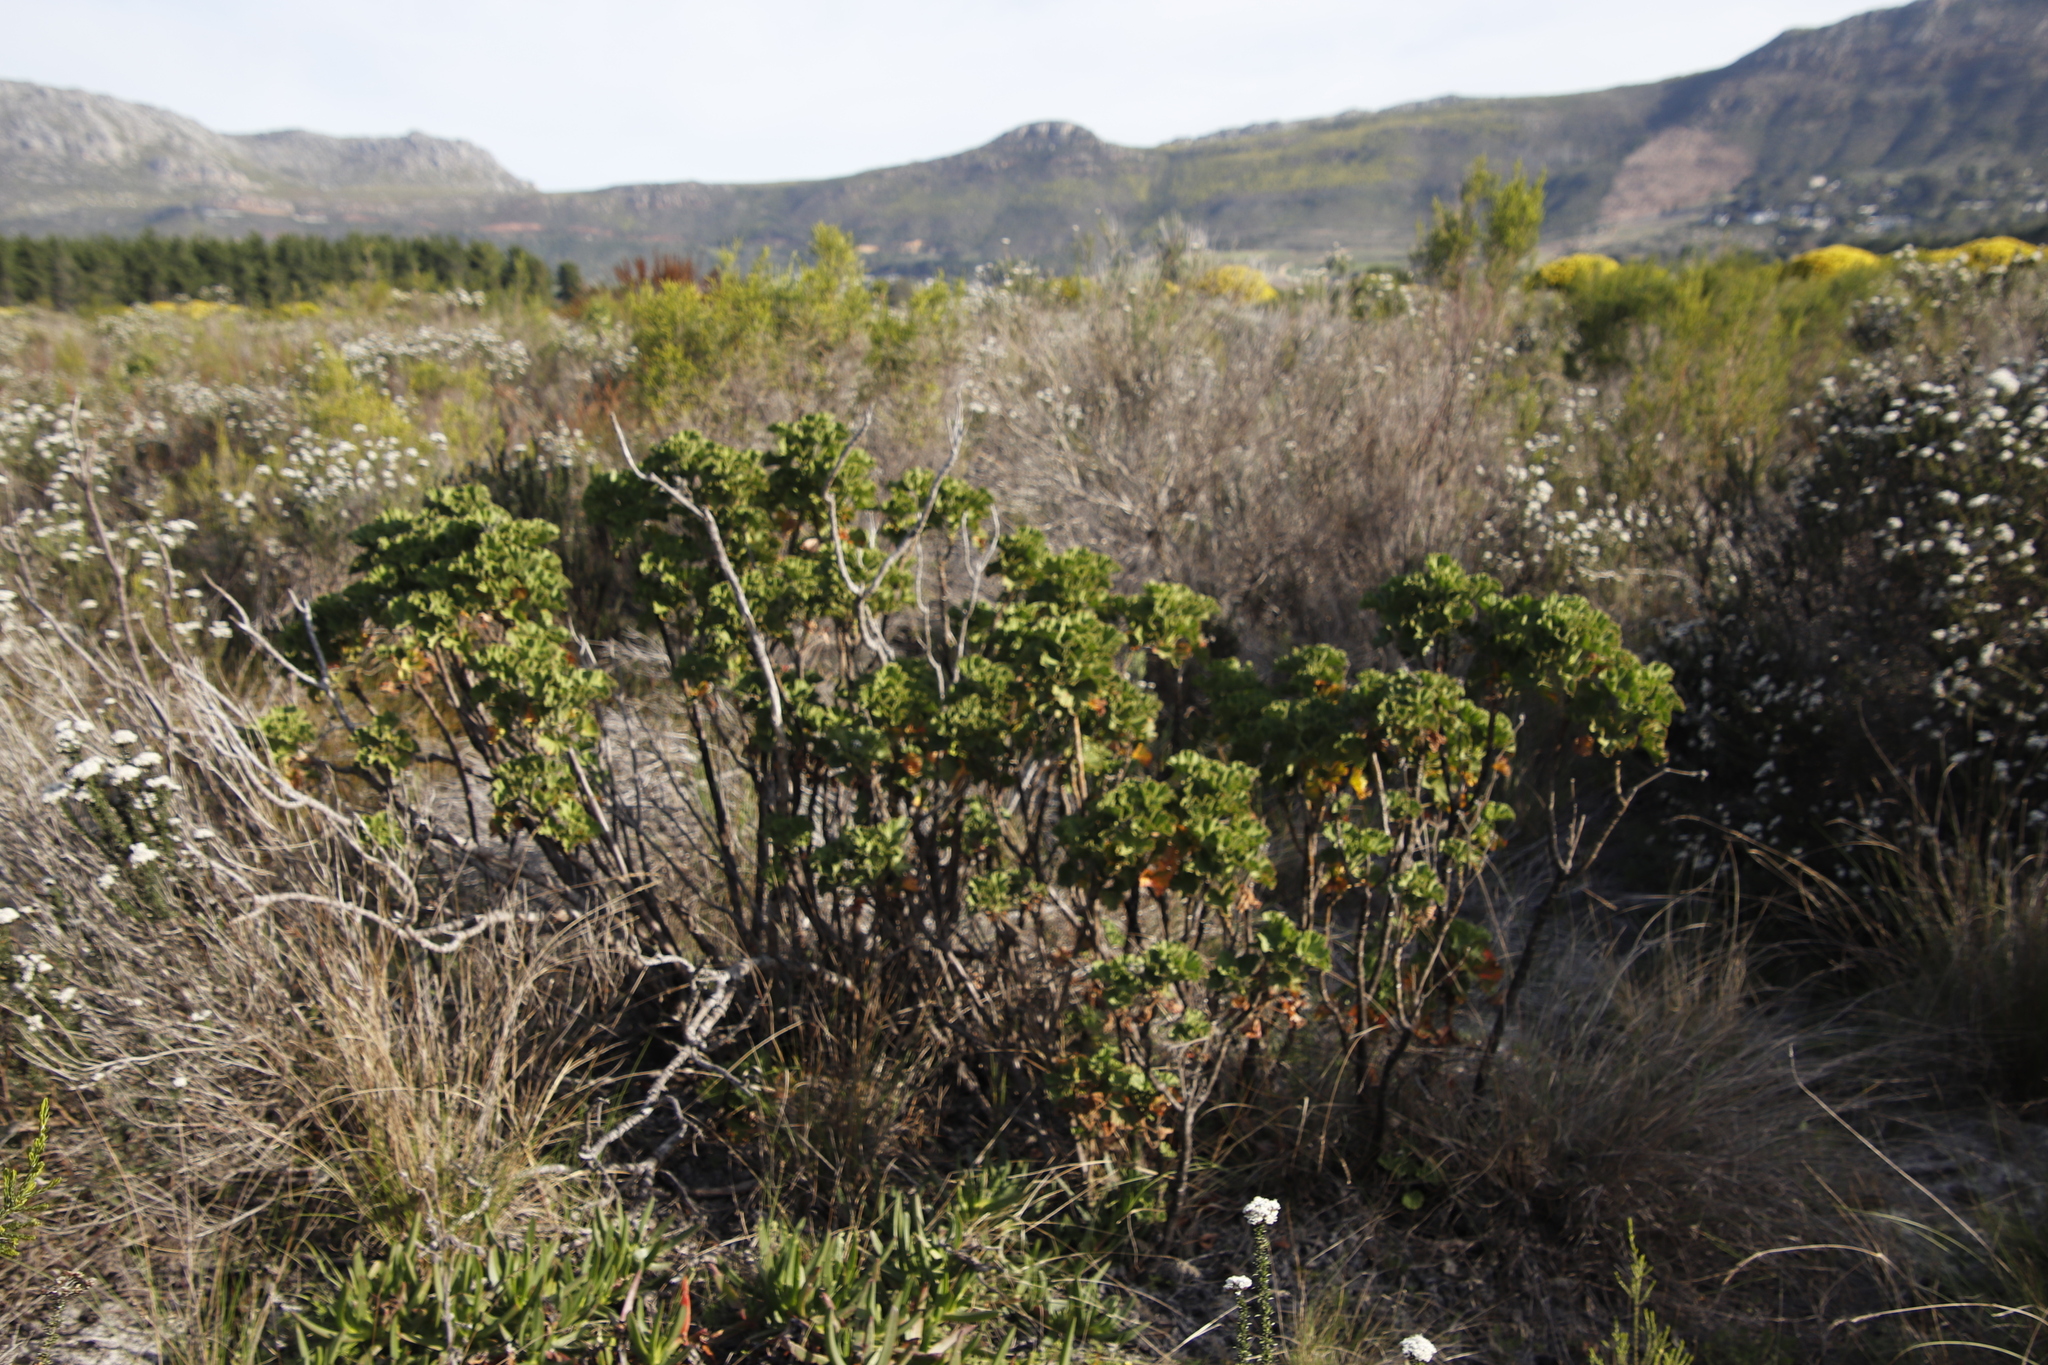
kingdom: Plantae
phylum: Tracheophyta
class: Magnoliopsida
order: Geraniales
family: Geraniaceae
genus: Pelargonium
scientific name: Pelargonium cucullatum
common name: Tree pelargonium
